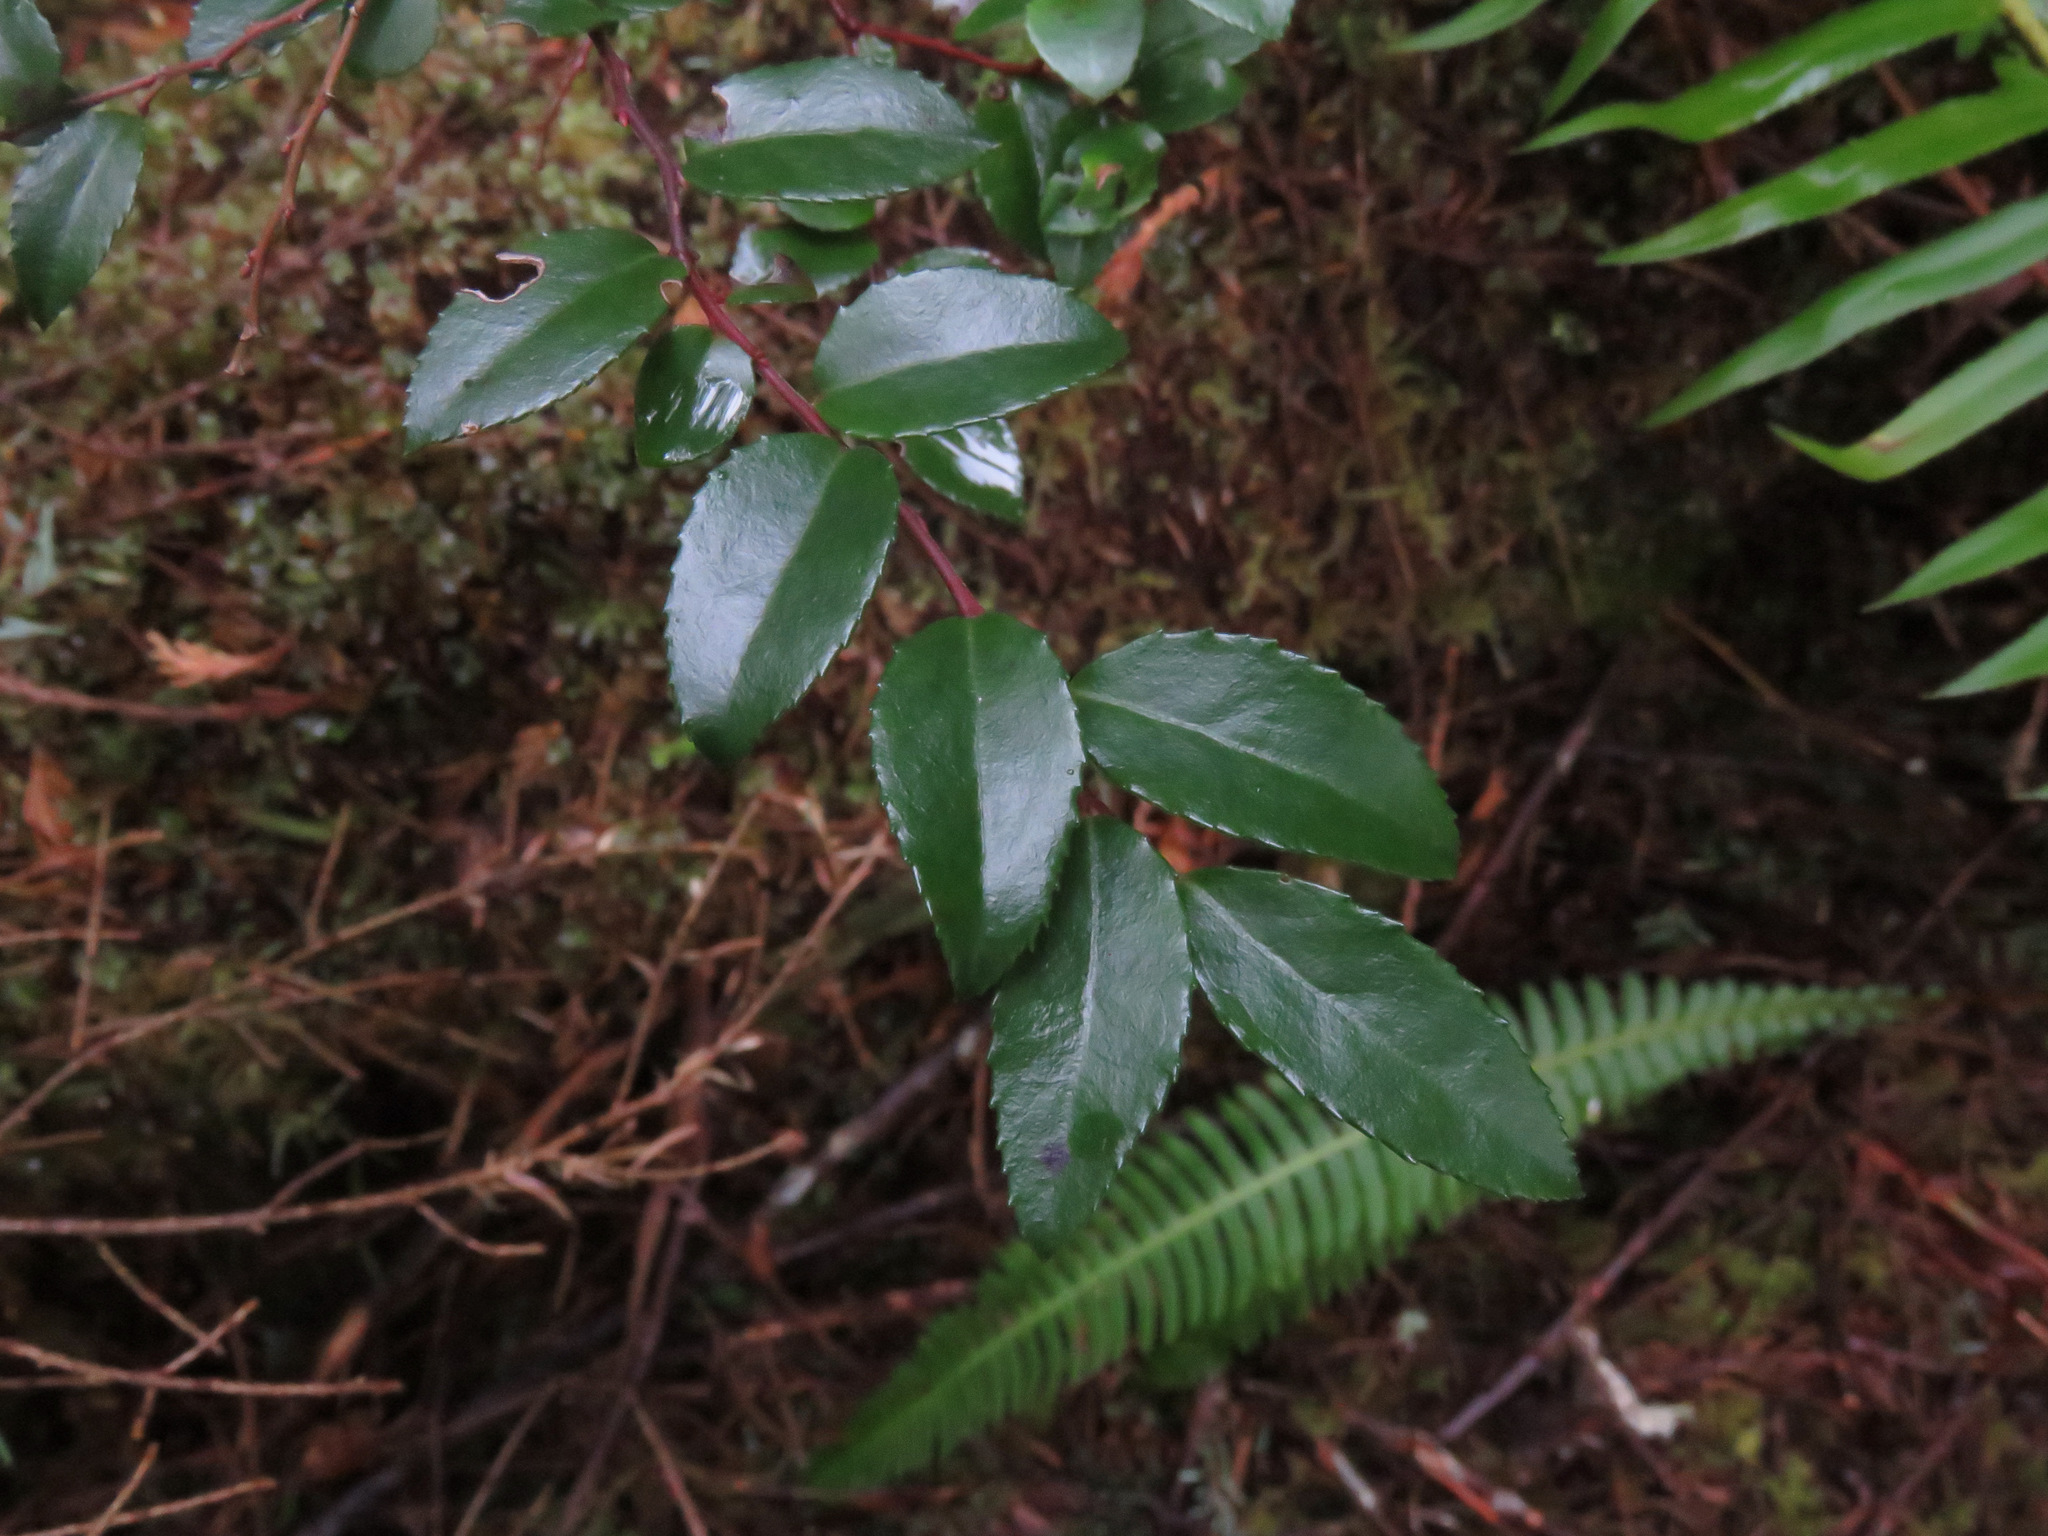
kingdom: Plantae
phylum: Tracheophyta
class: Magnoliopsida
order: Ericales
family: Ericaceae
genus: Vaccinium
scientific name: Vaccinium ovatum
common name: California-huckleberry
